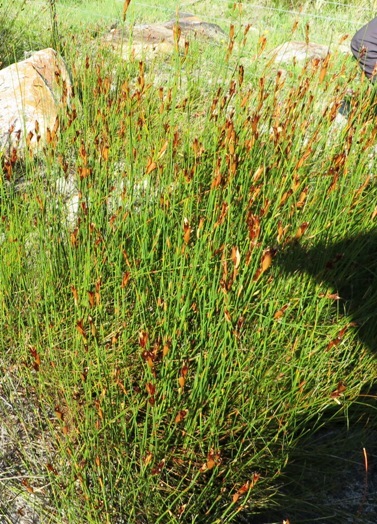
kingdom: Plantae
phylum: Tracheophyta
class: Liliopsida
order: Poales
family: Restionaceae
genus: Willdenowia
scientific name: Willdenowia glomerata
